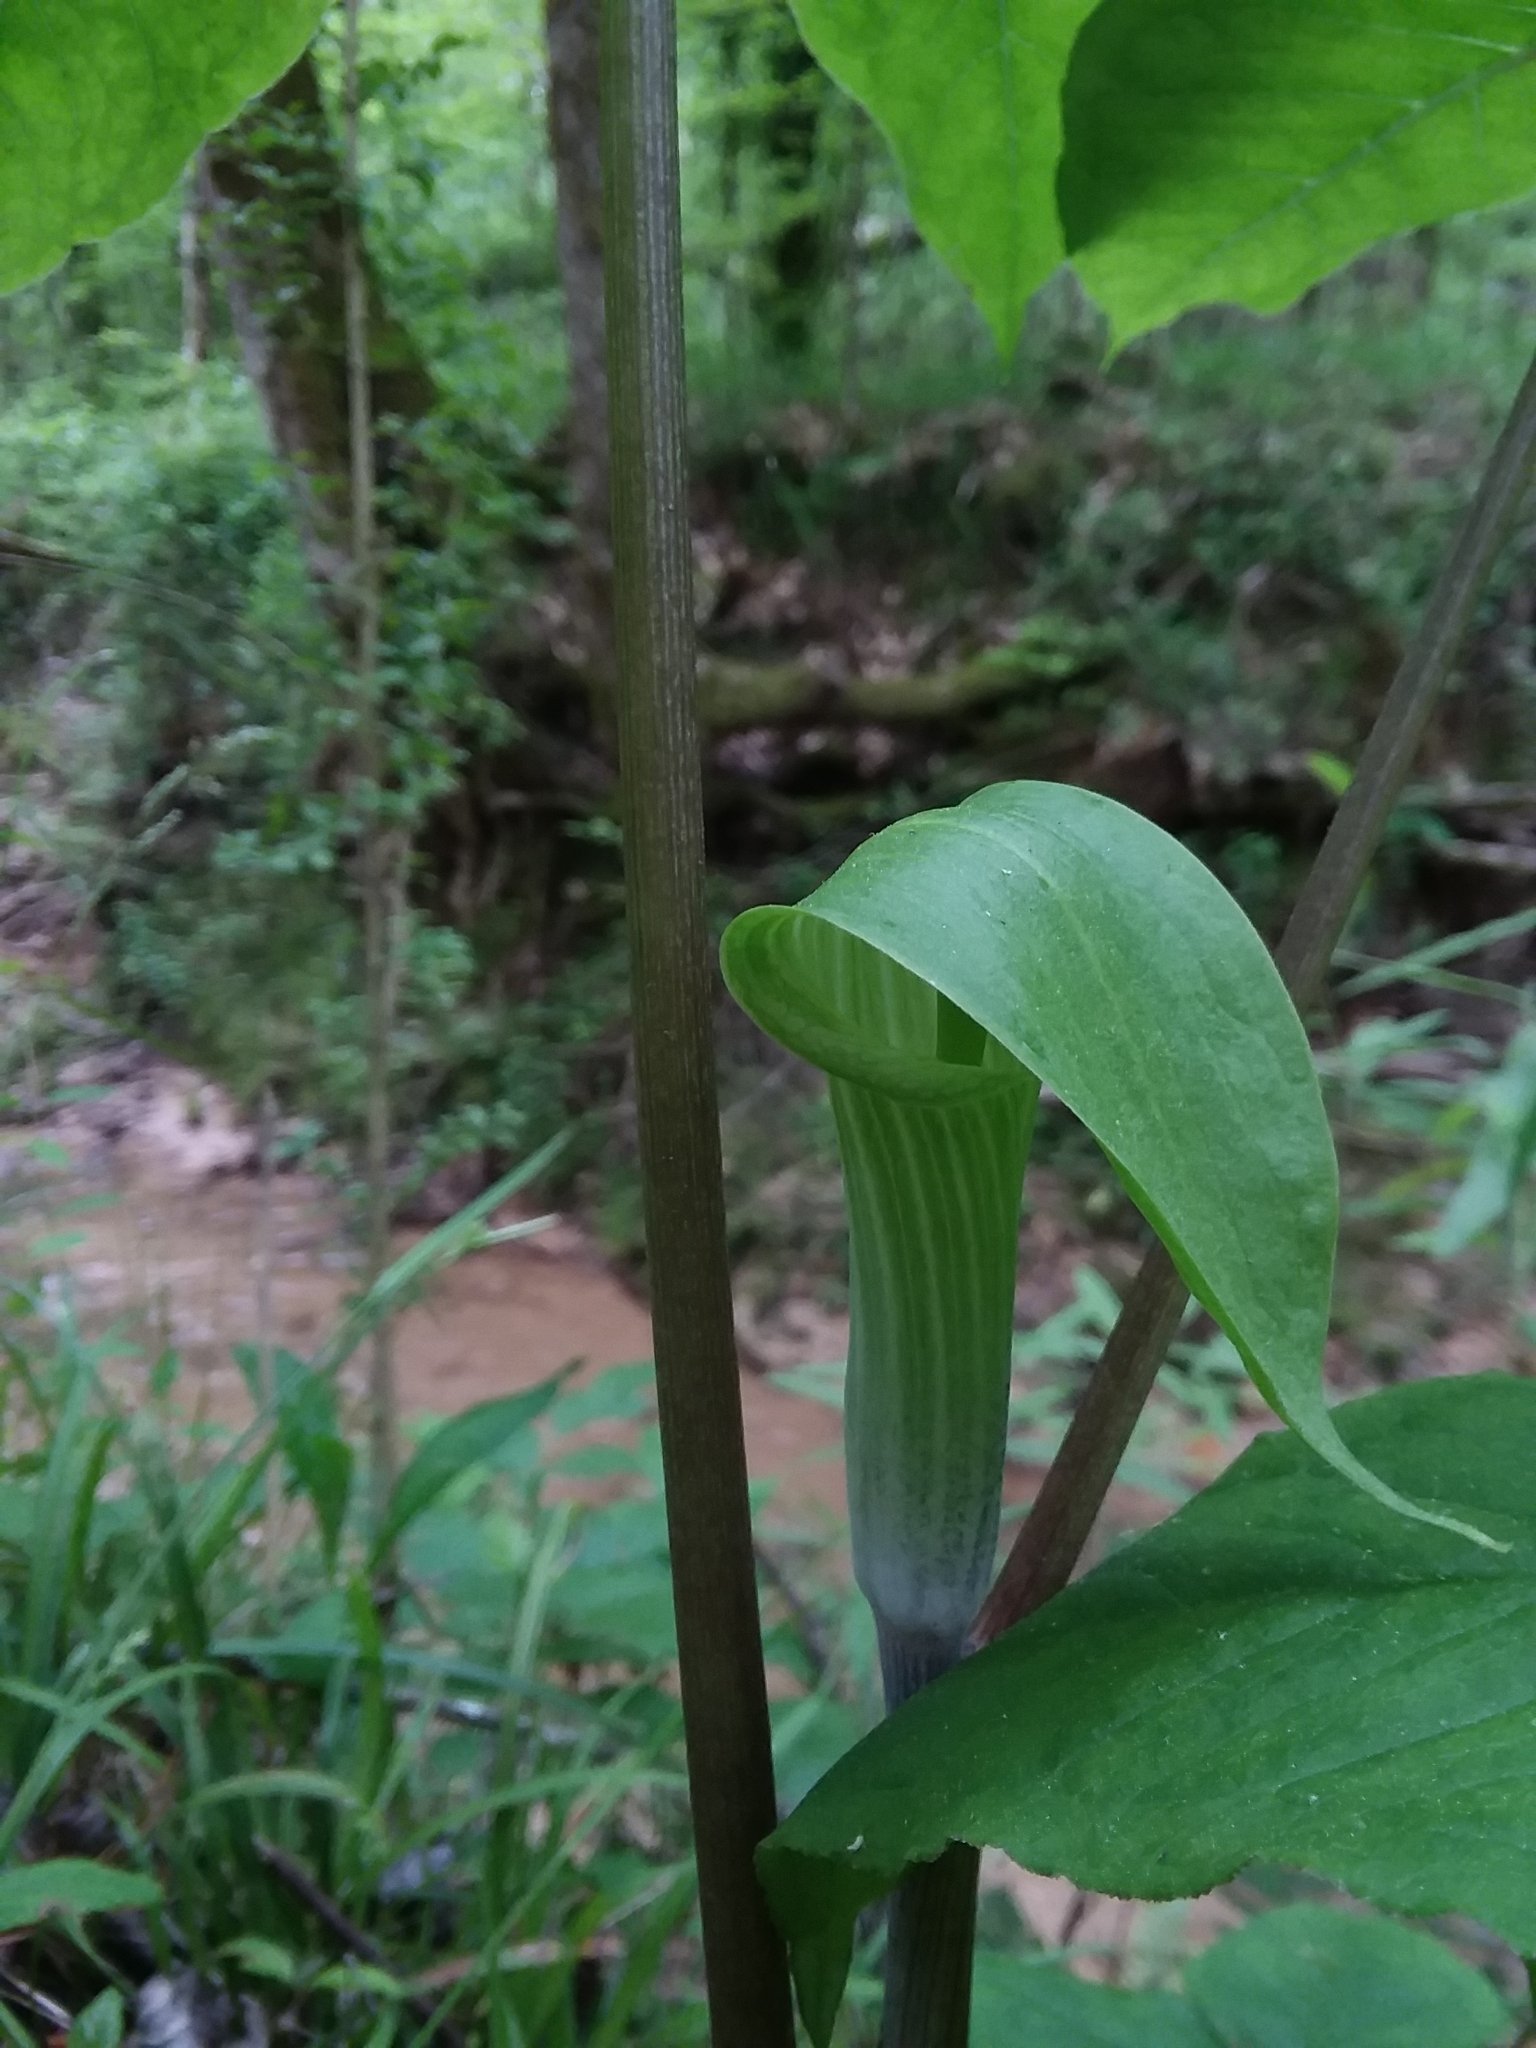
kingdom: Plantae
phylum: Tracheophyta
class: Liliopsida
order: Alismatales
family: Araceae
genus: Arisaema
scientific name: Arisaema acuminatum
